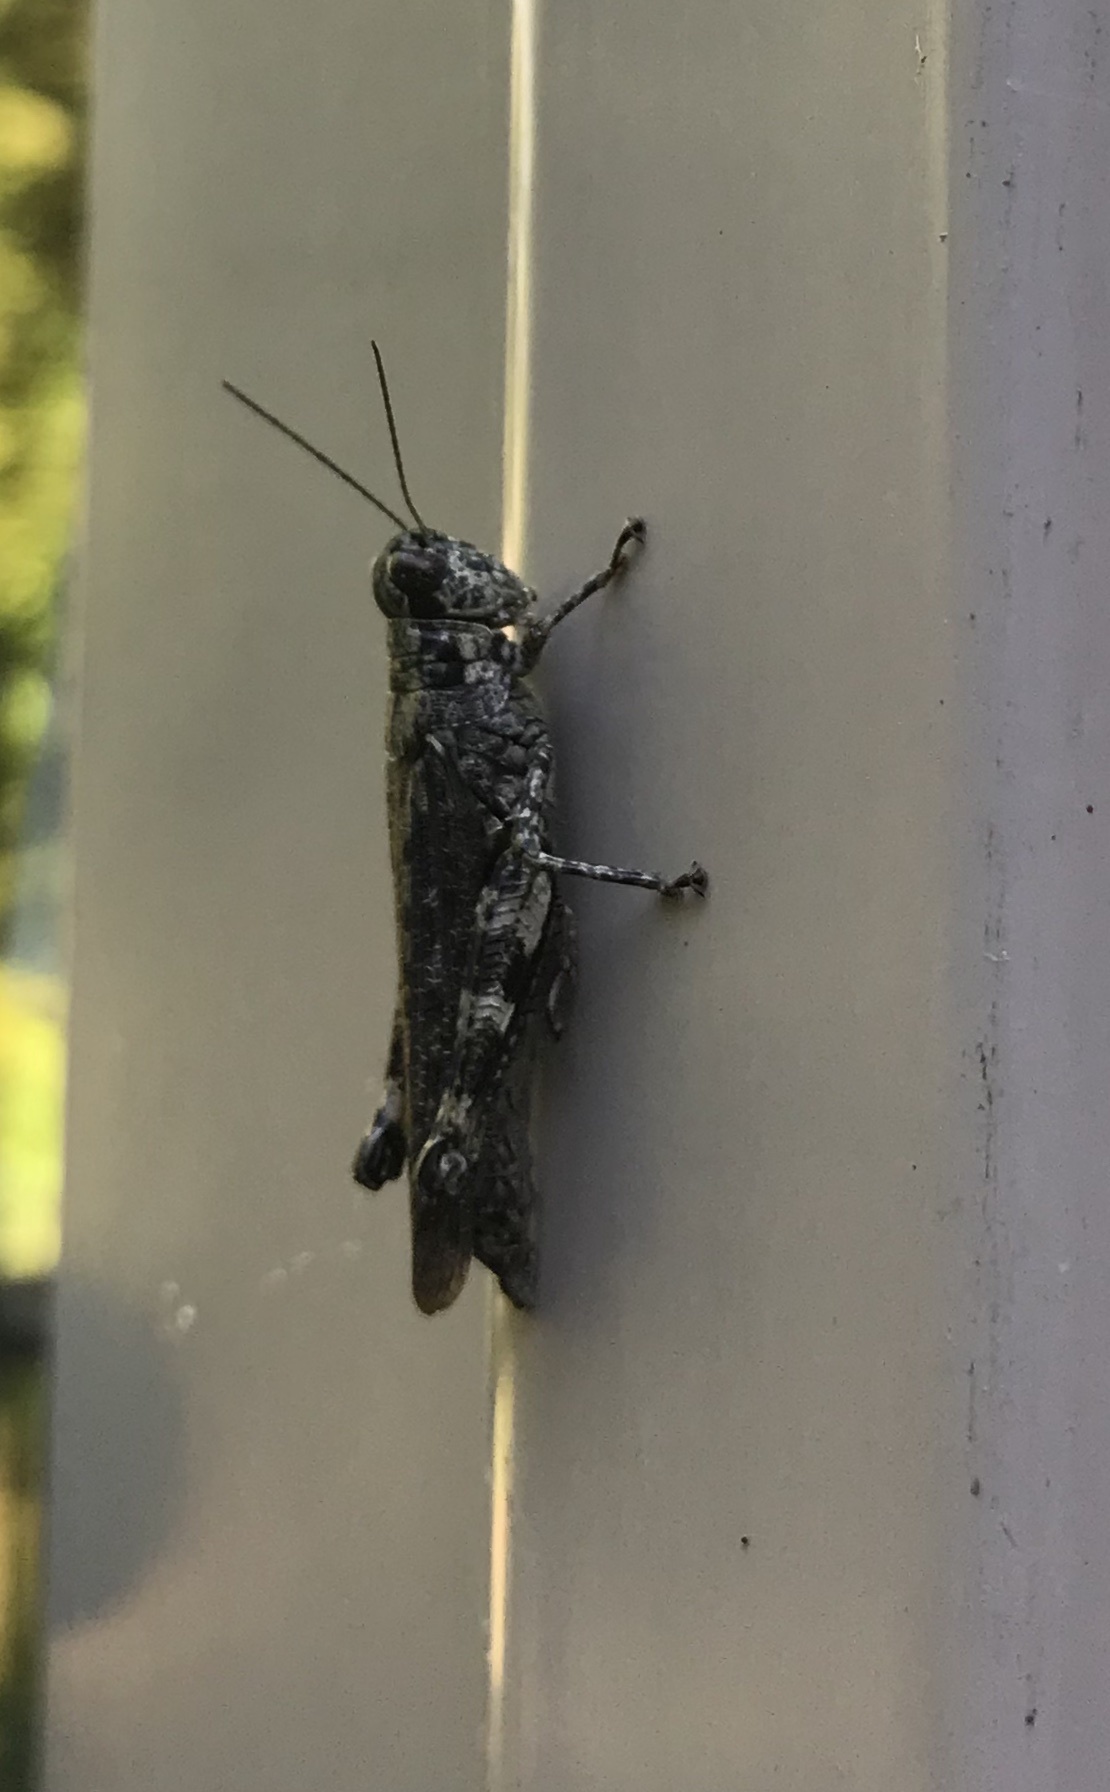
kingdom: Animalia
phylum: Arthropoda
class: Insecta
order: Orthoptera
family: Acrididae
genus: Melanoplus
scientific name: Melanoplus punctulatus
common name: Pine-tree spur-throat grasshopper
